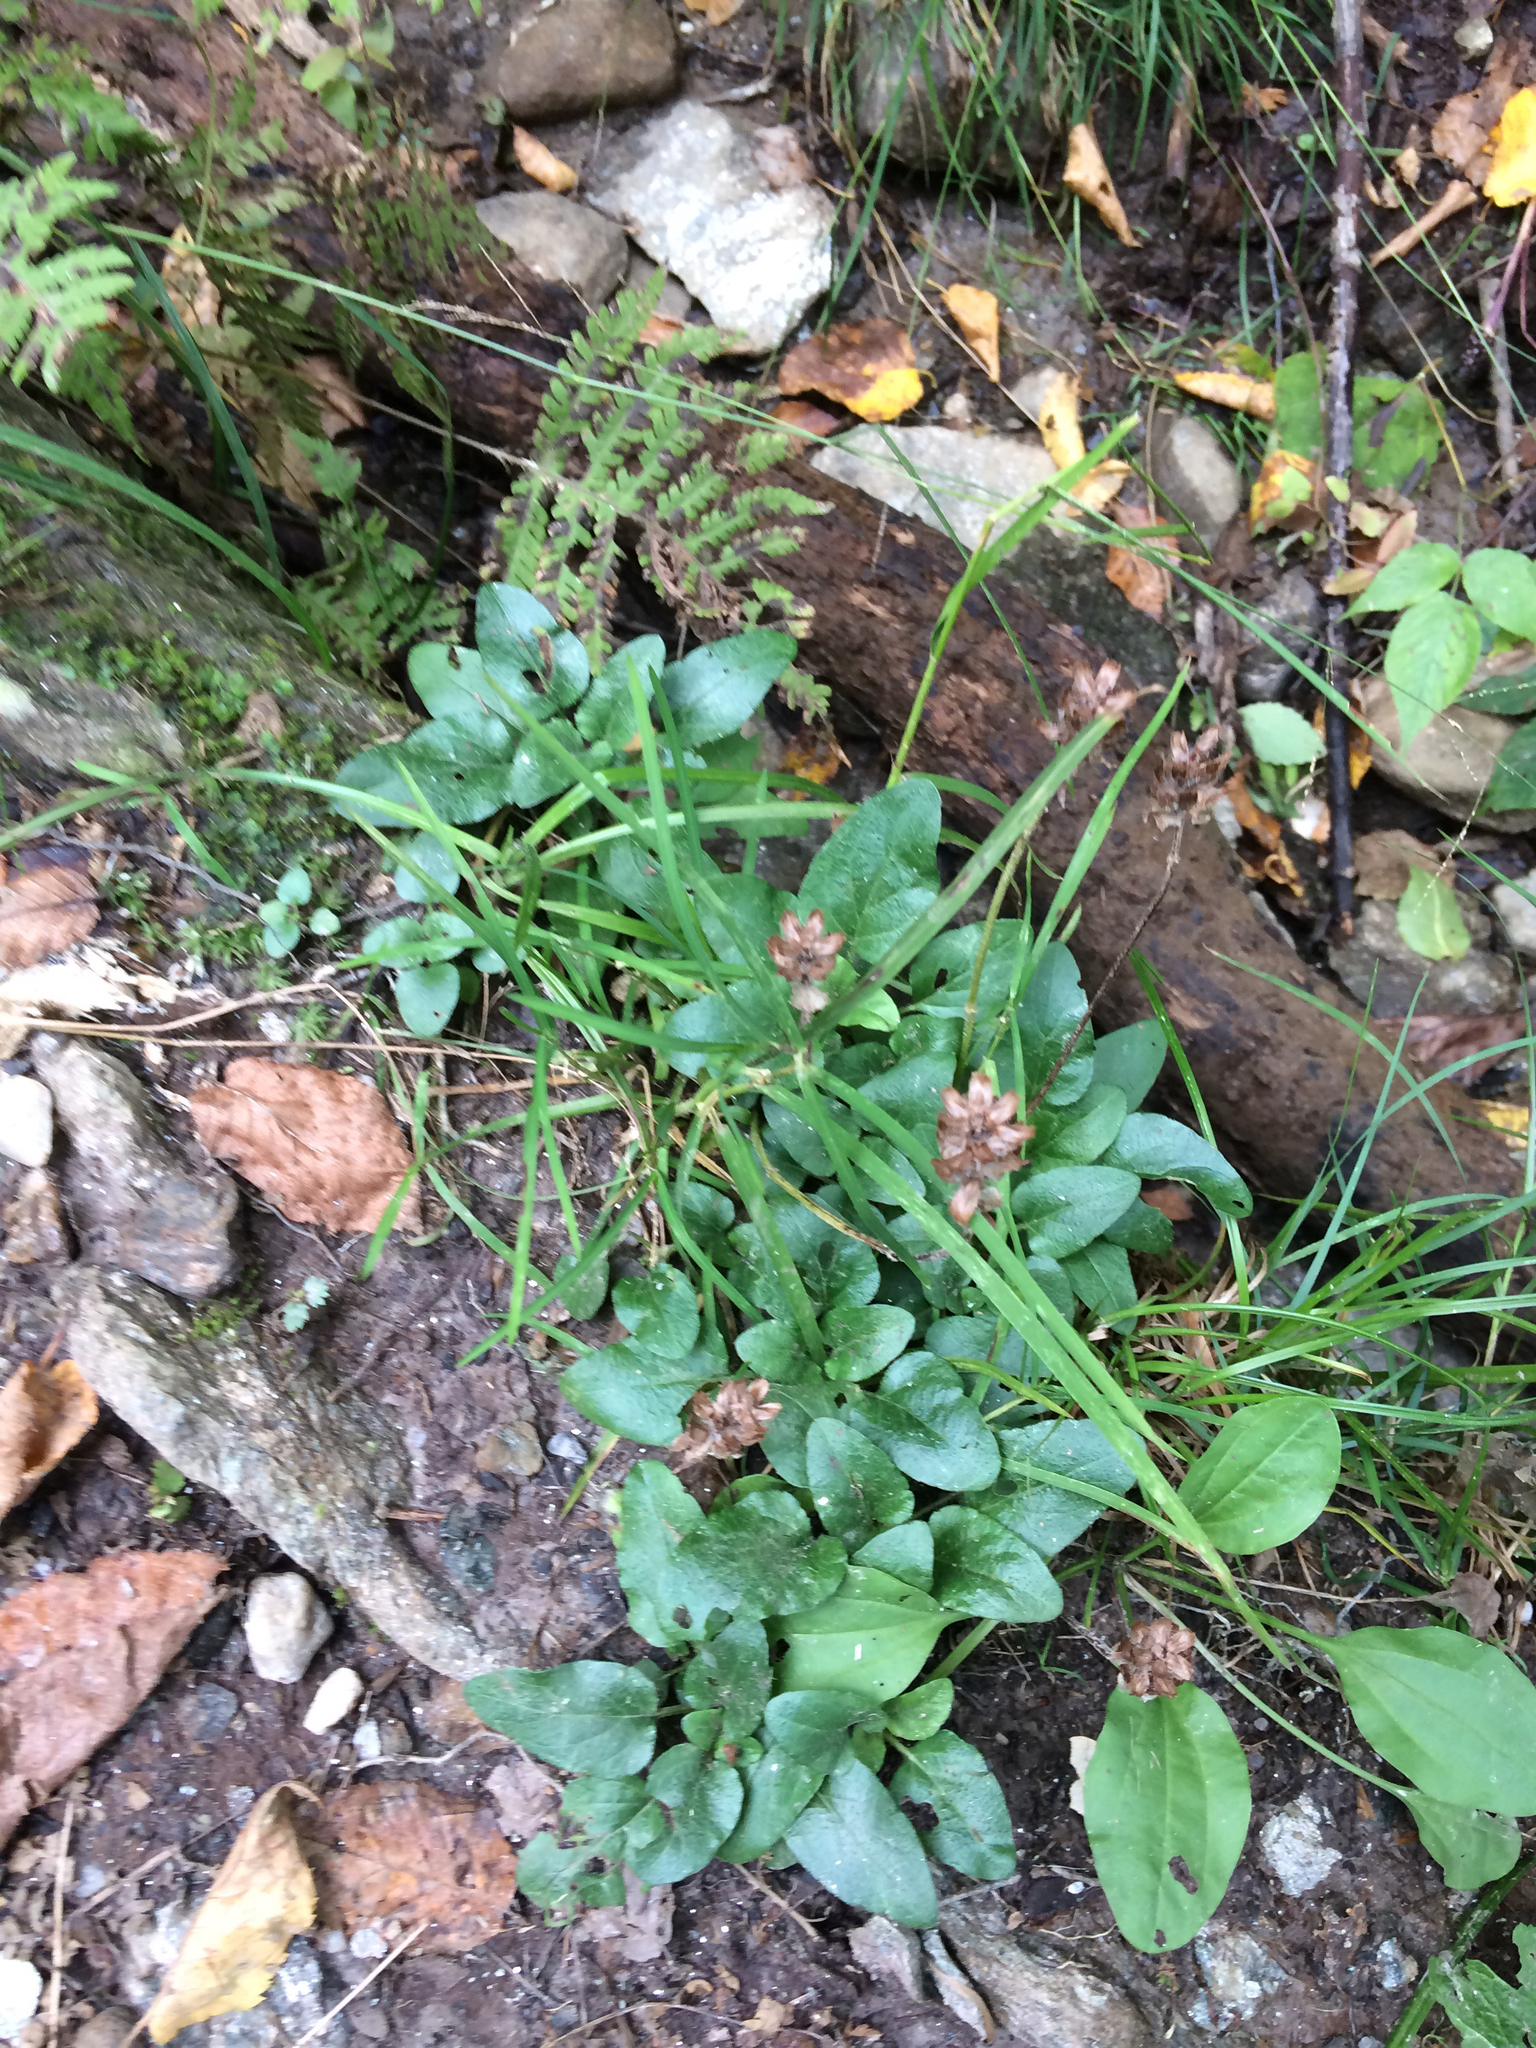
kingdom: Plantae
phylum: Tracheophyta
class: Magnoliopsida
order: Lamiales
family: Lamiaceae
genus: Prunella
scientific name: Prunella vulgaris
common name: Heal-all
